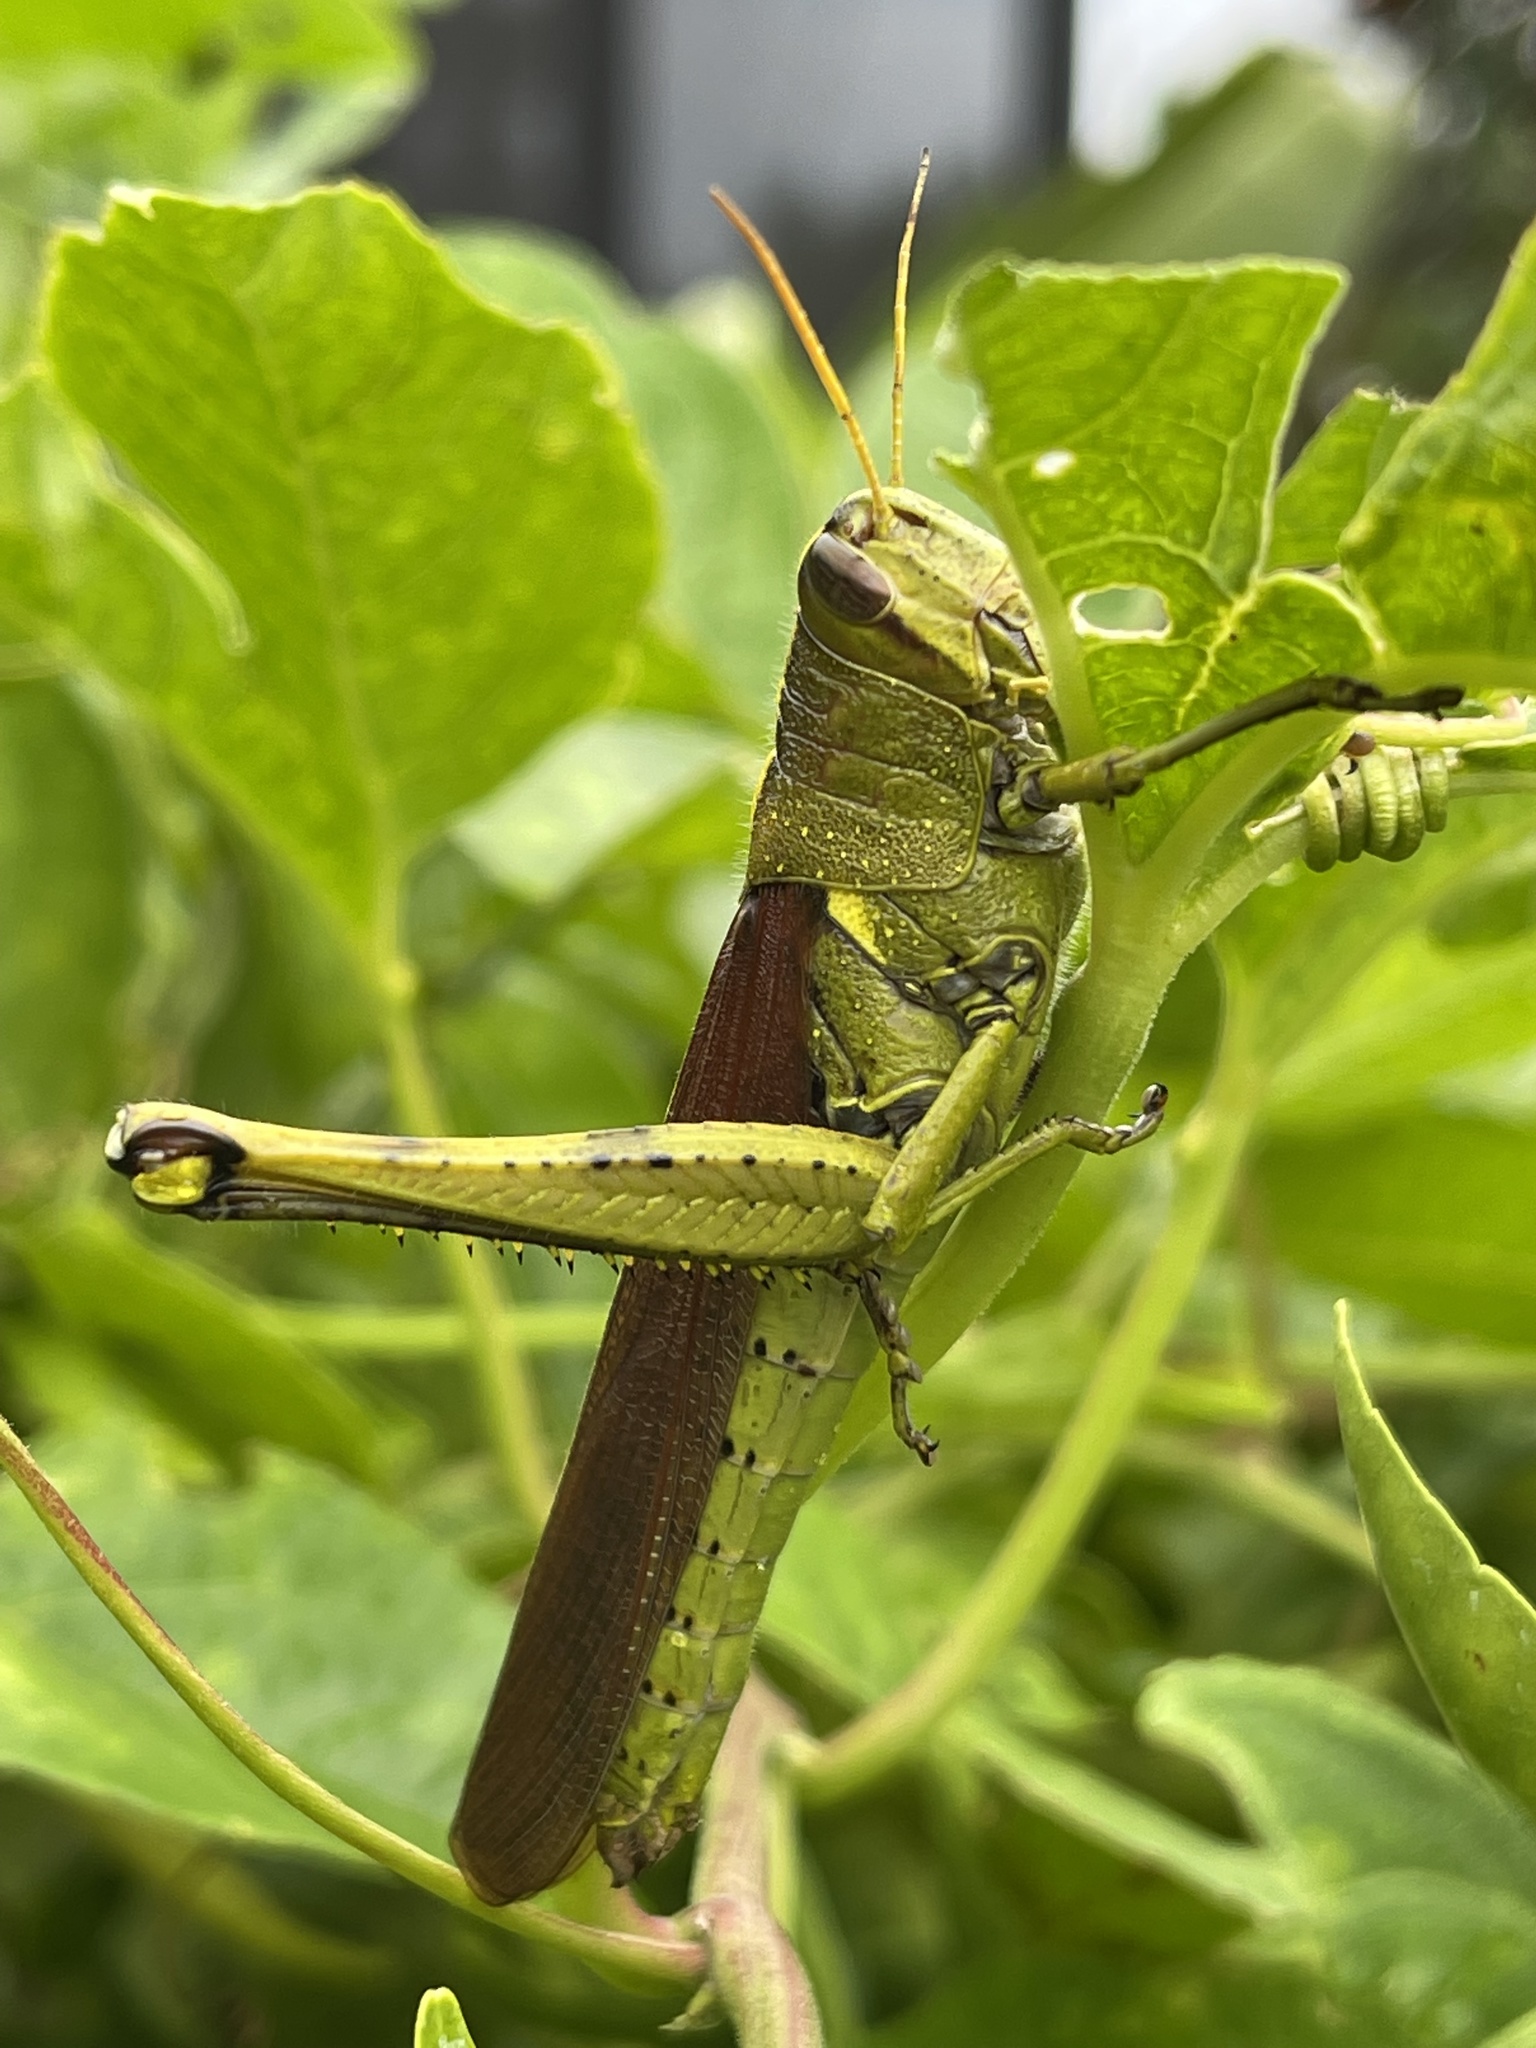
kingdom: Animalia
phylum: Arthropoda
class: Insecta
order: Orthoptera
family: Acrididae
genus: Schistocerca
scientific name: Schistocerca obscura
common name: Obscure bird grasshopper
